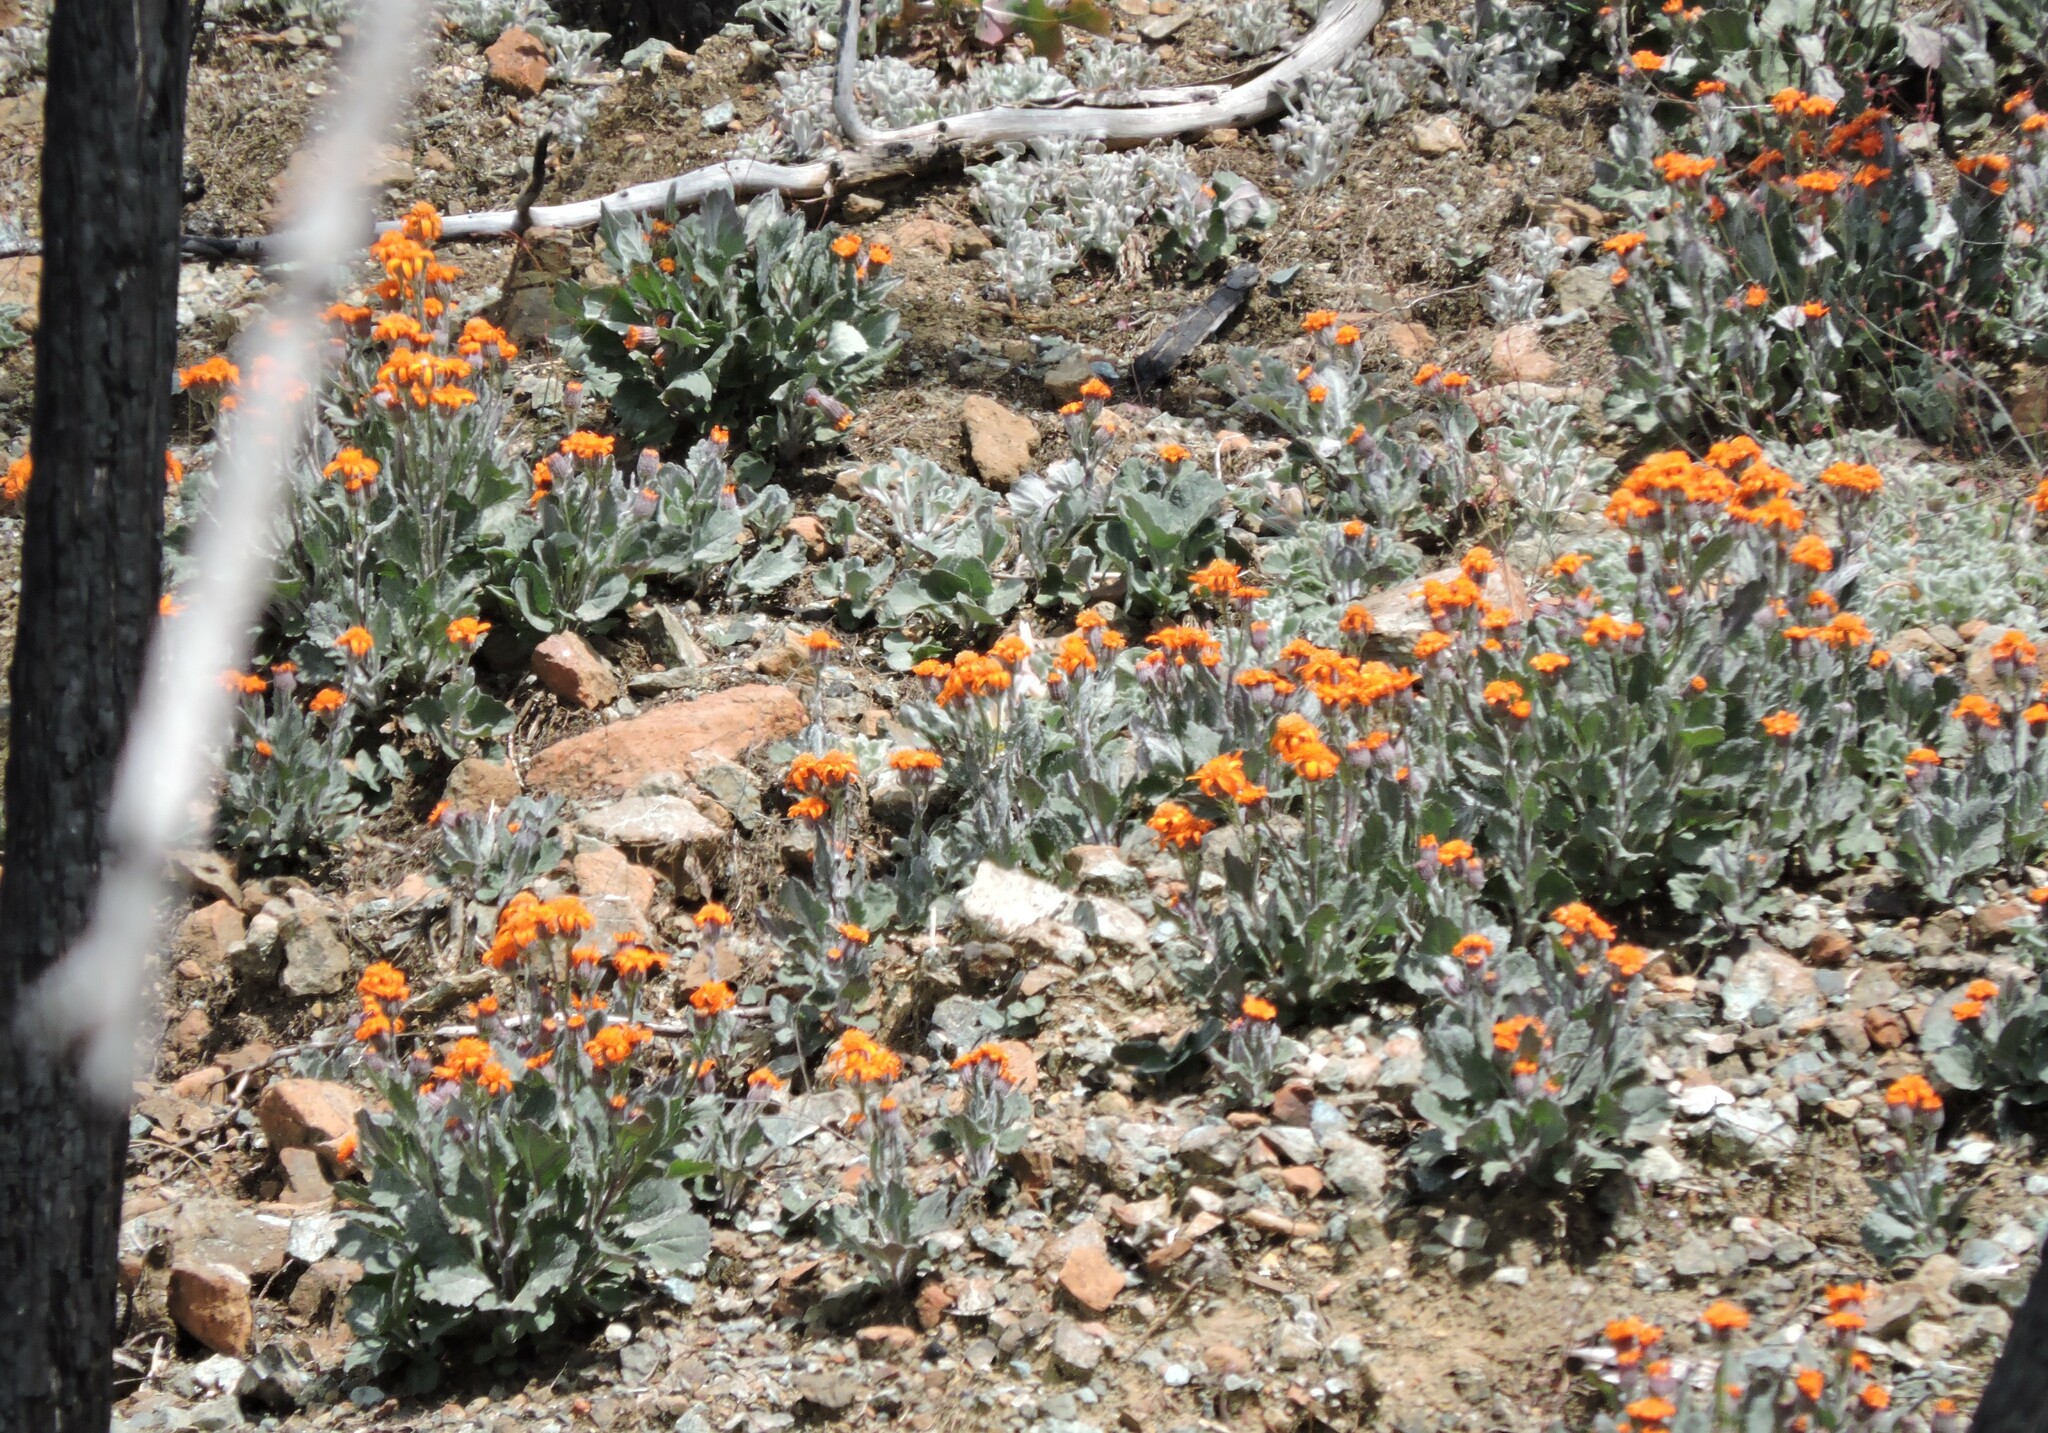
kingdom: Plantae
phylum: Tracheophyta
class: Magnoliopsida
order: Asterales
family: Asteraceae
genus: Packera
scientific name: Packera greenei
